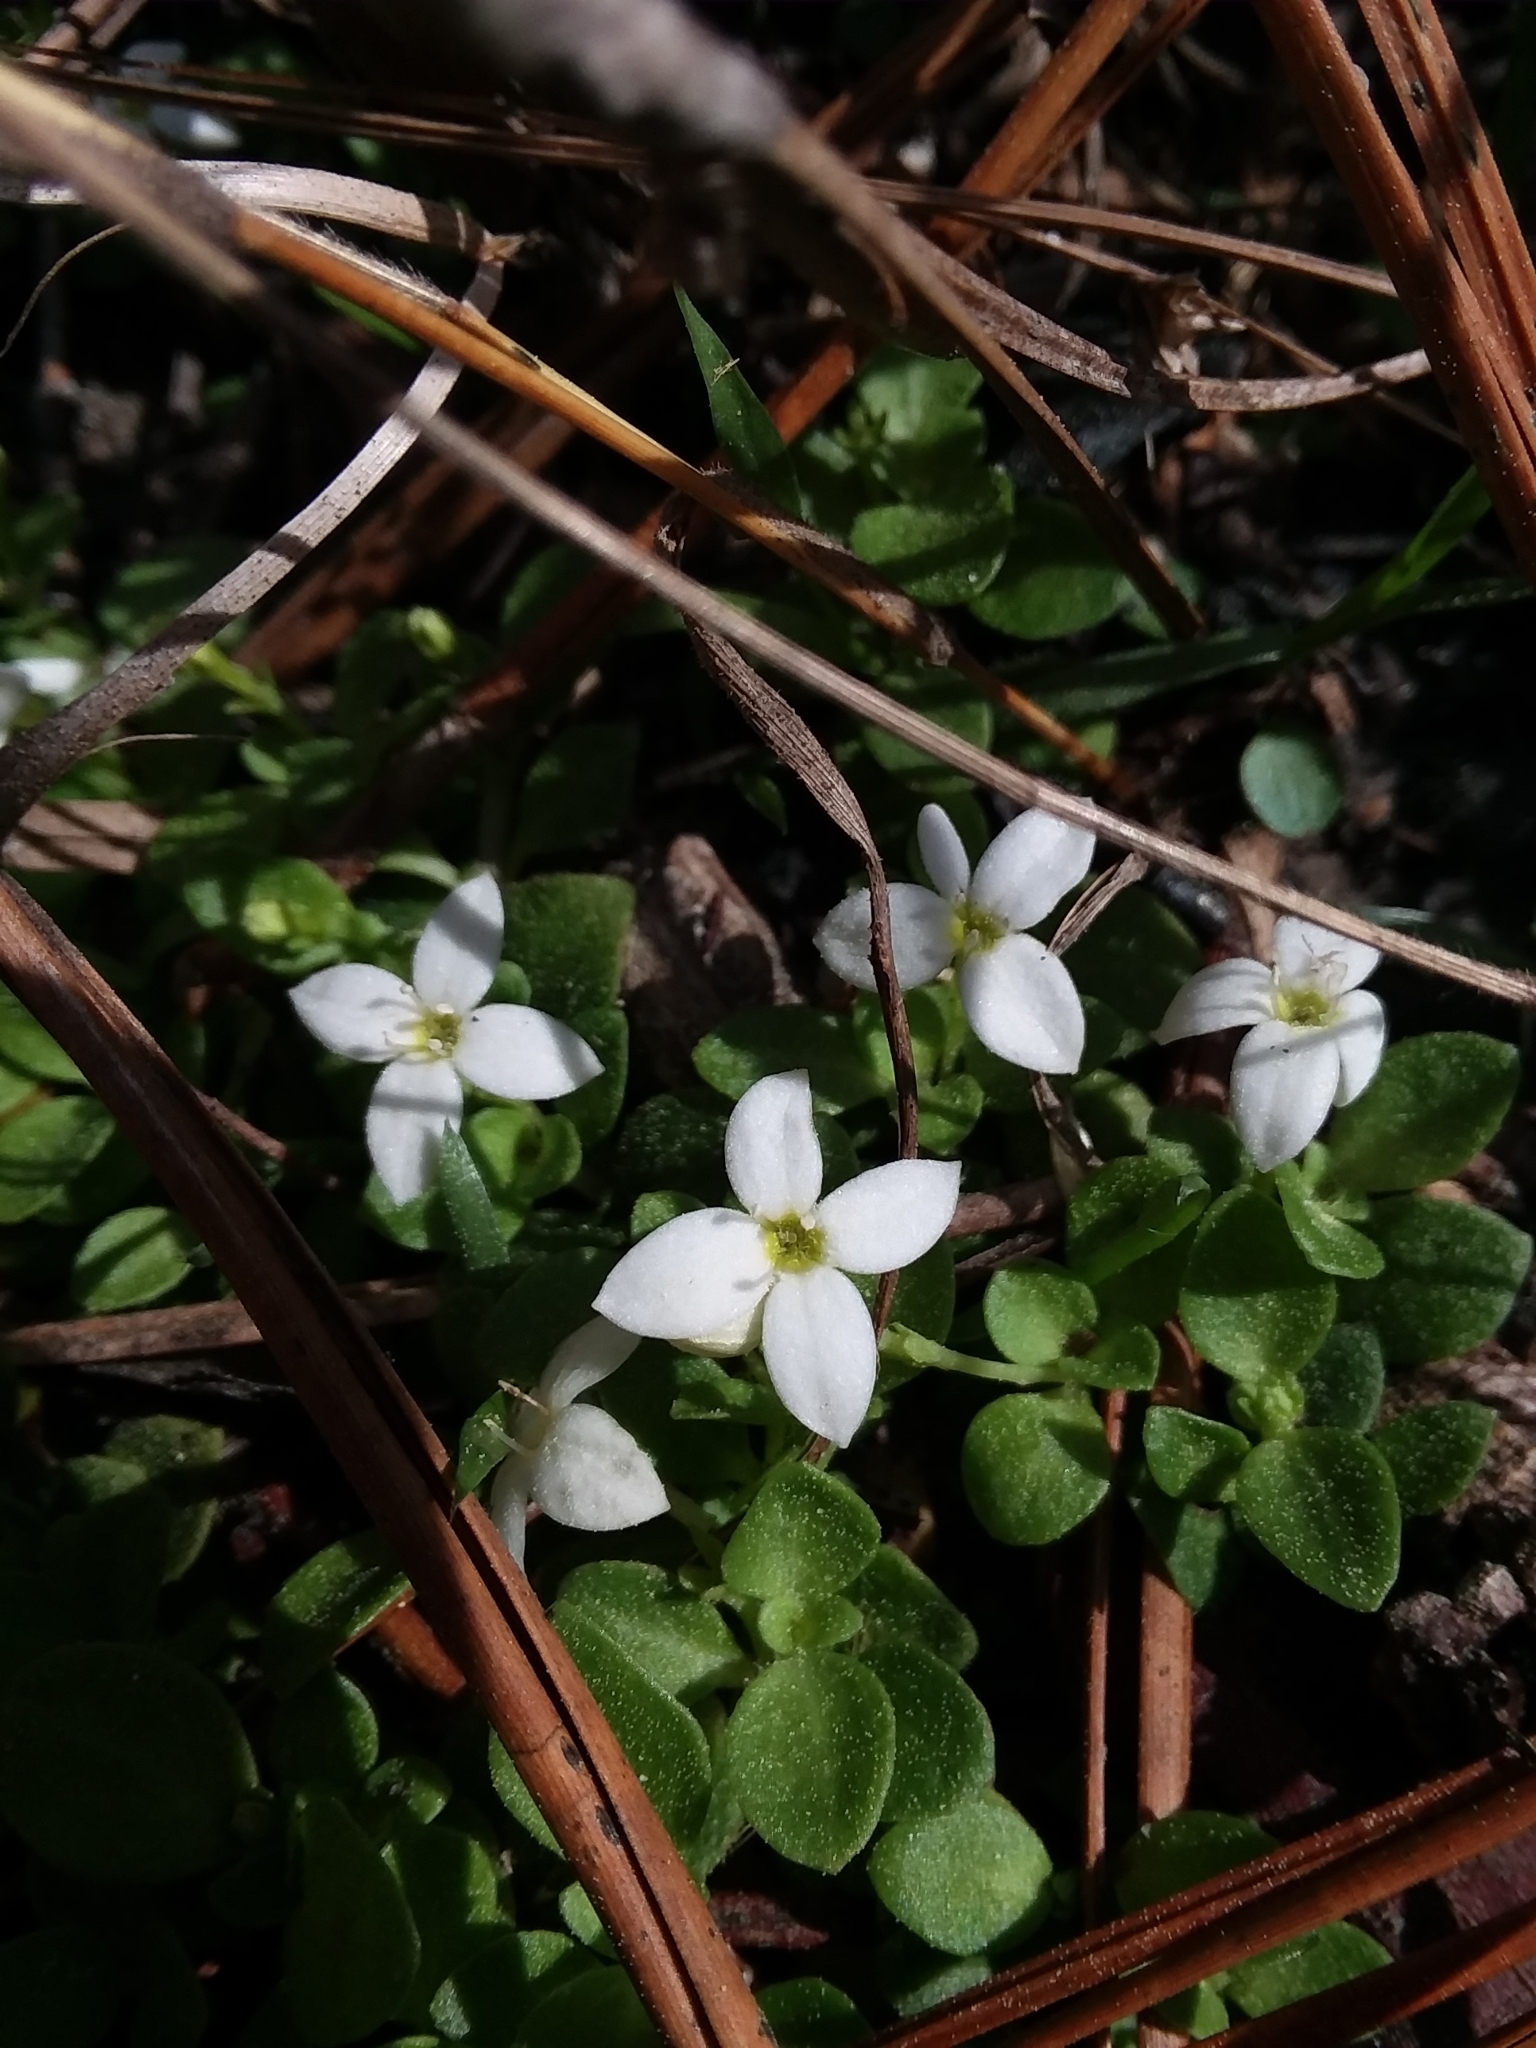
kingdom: Plantae
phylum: Tracheophyta
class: Magnoliopsida
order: Gentianales
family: Rubiaceae
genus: Houstonia
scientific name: Houstonia procumbens
